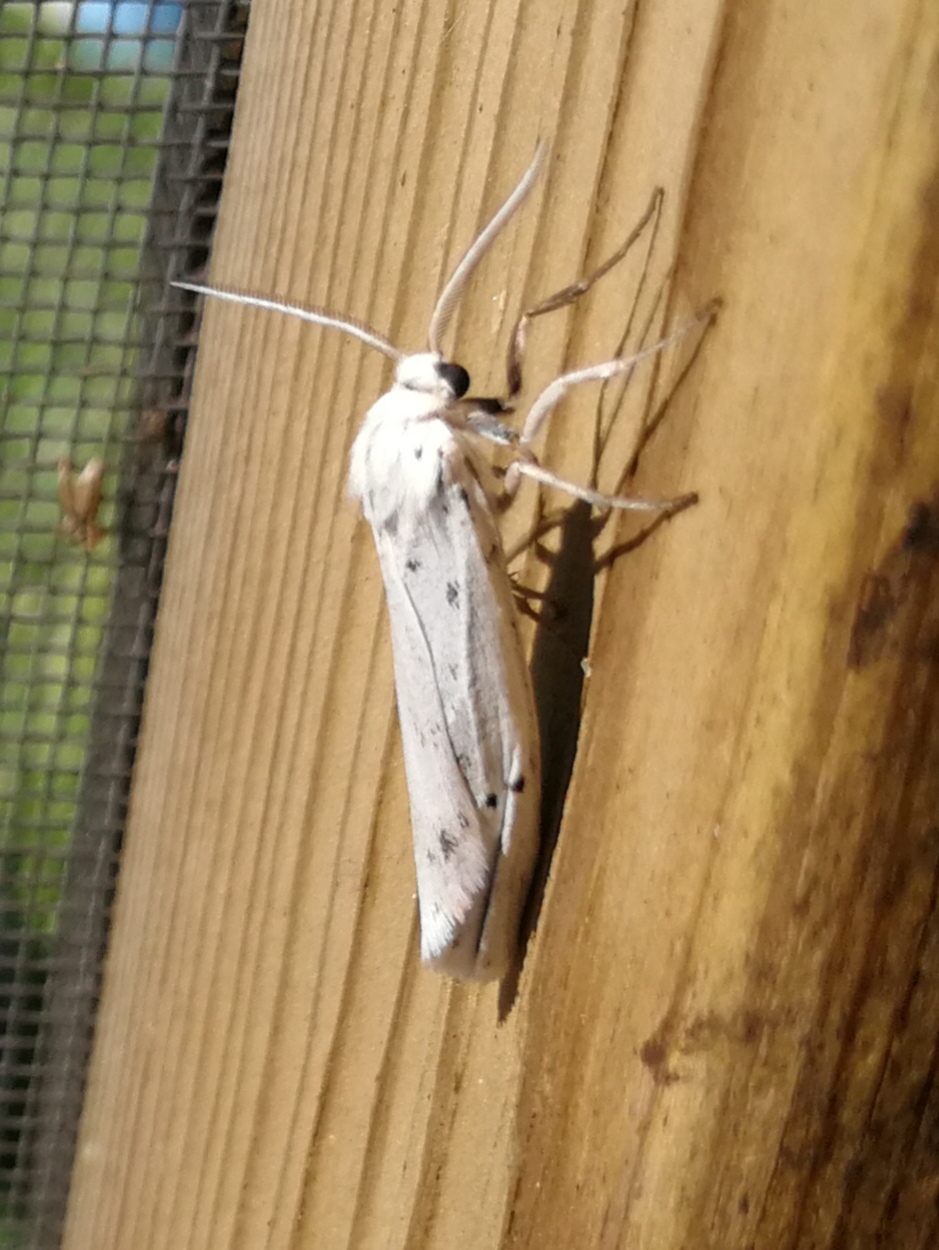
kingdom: Animalia
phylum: Arthropoda
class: Insecta
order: Lepidoptera
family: Erebidae
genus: Coscinia
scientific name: Coscinia cribraria
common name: Speckled footman
